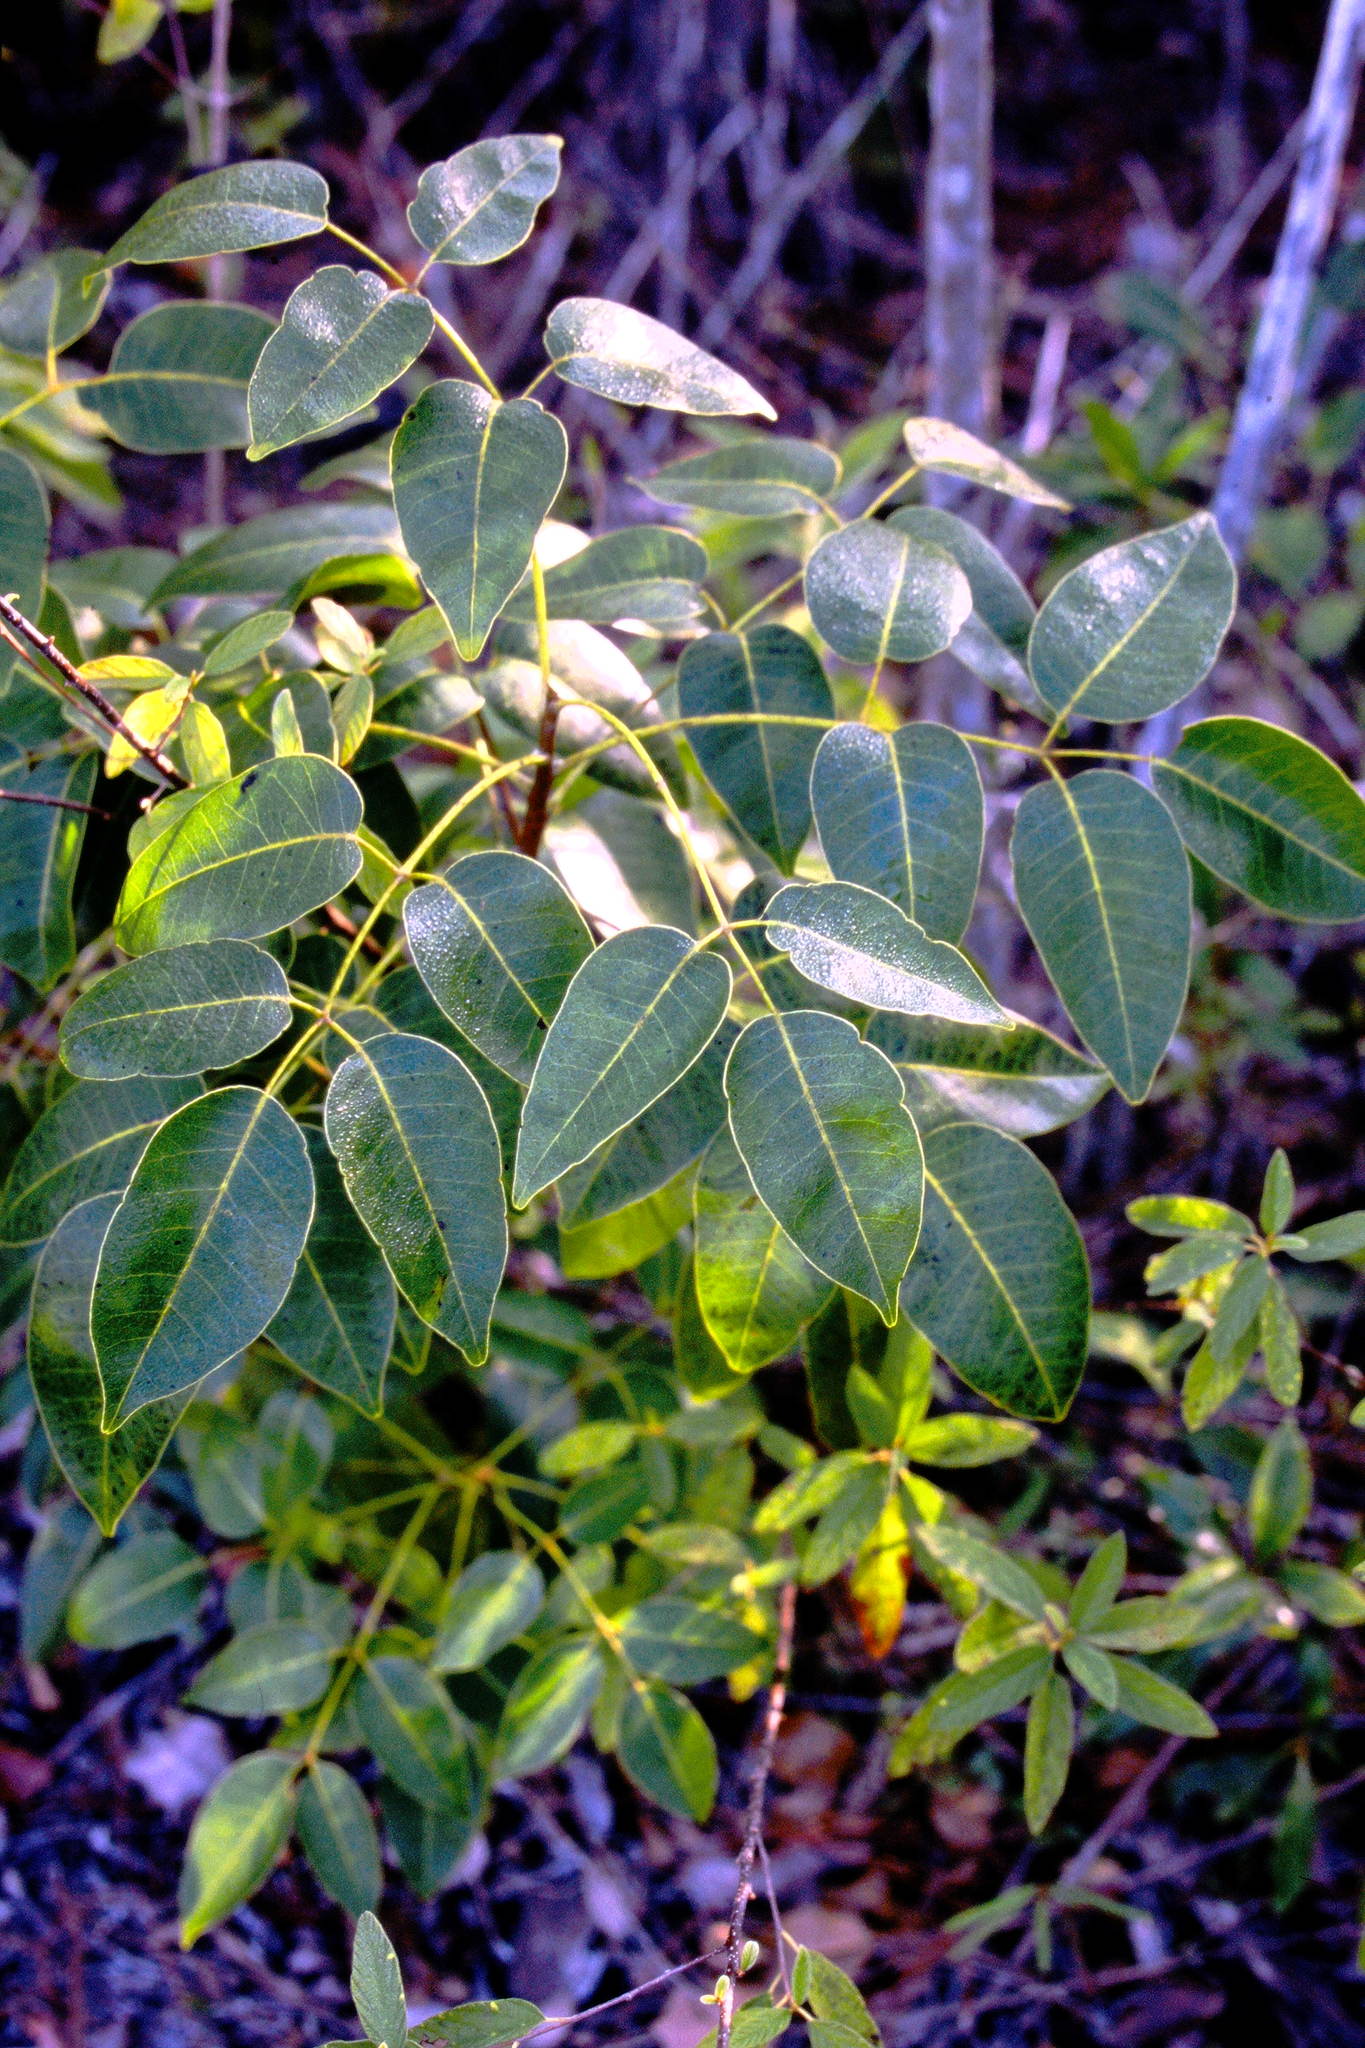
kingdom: Plantae
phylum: Tracheophyta
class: Magnoliopsida
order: Sapindales
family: Anacardiaceae
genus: Metopium
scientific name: Metopium toxiferum
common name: Florida poisontree
